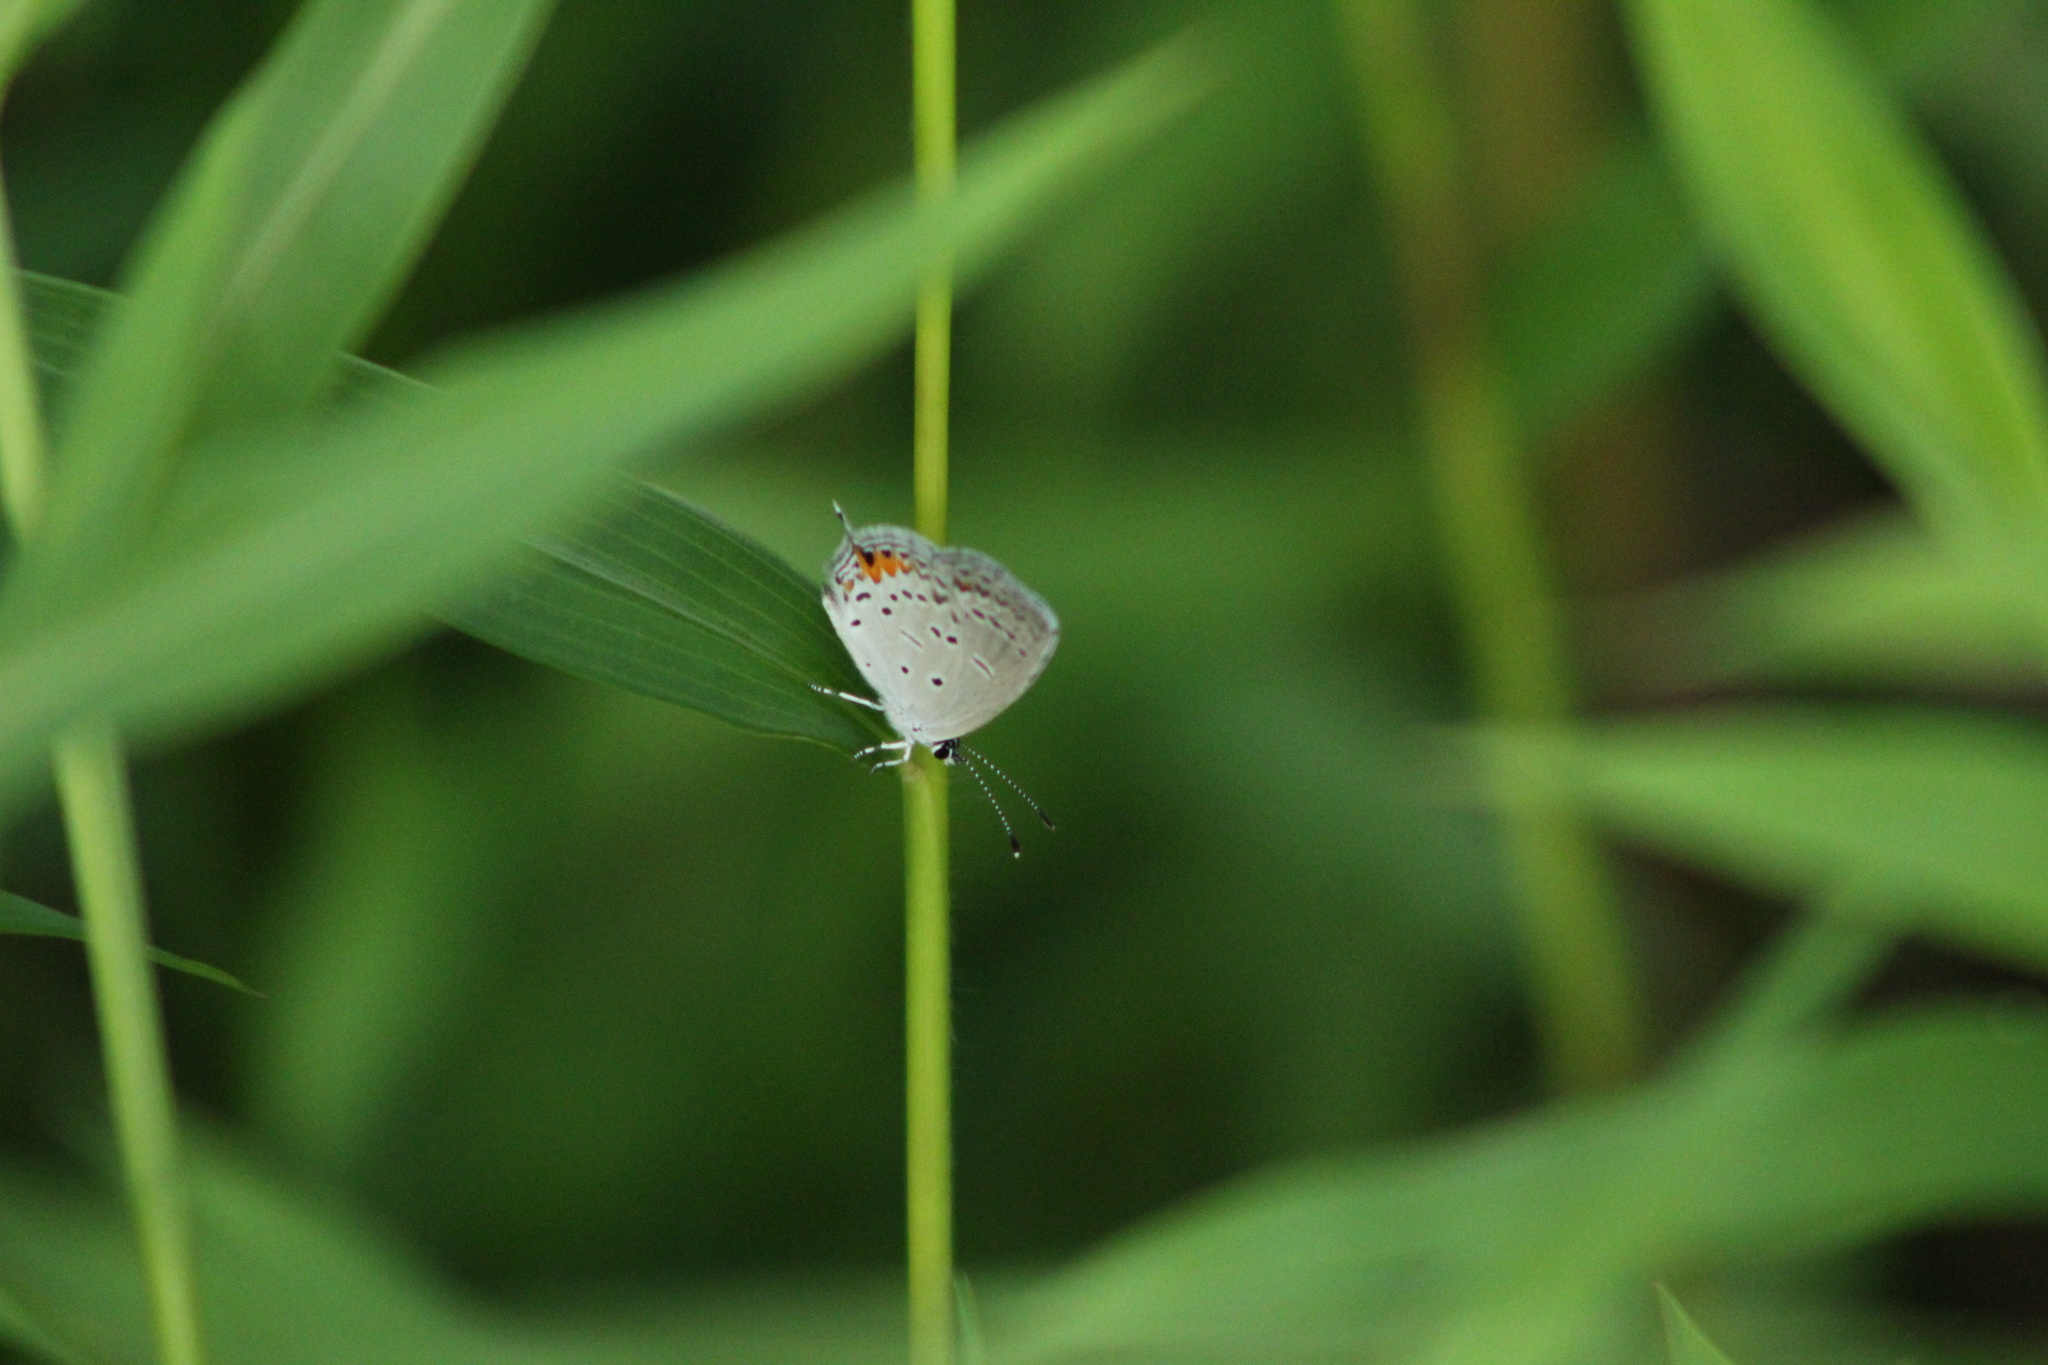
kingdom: Animalia
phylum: Arthropoda
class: Insecta
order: Lepidoptera
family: Lycaenidae
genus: Elkalyce
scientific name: Elkalyce comyntas
